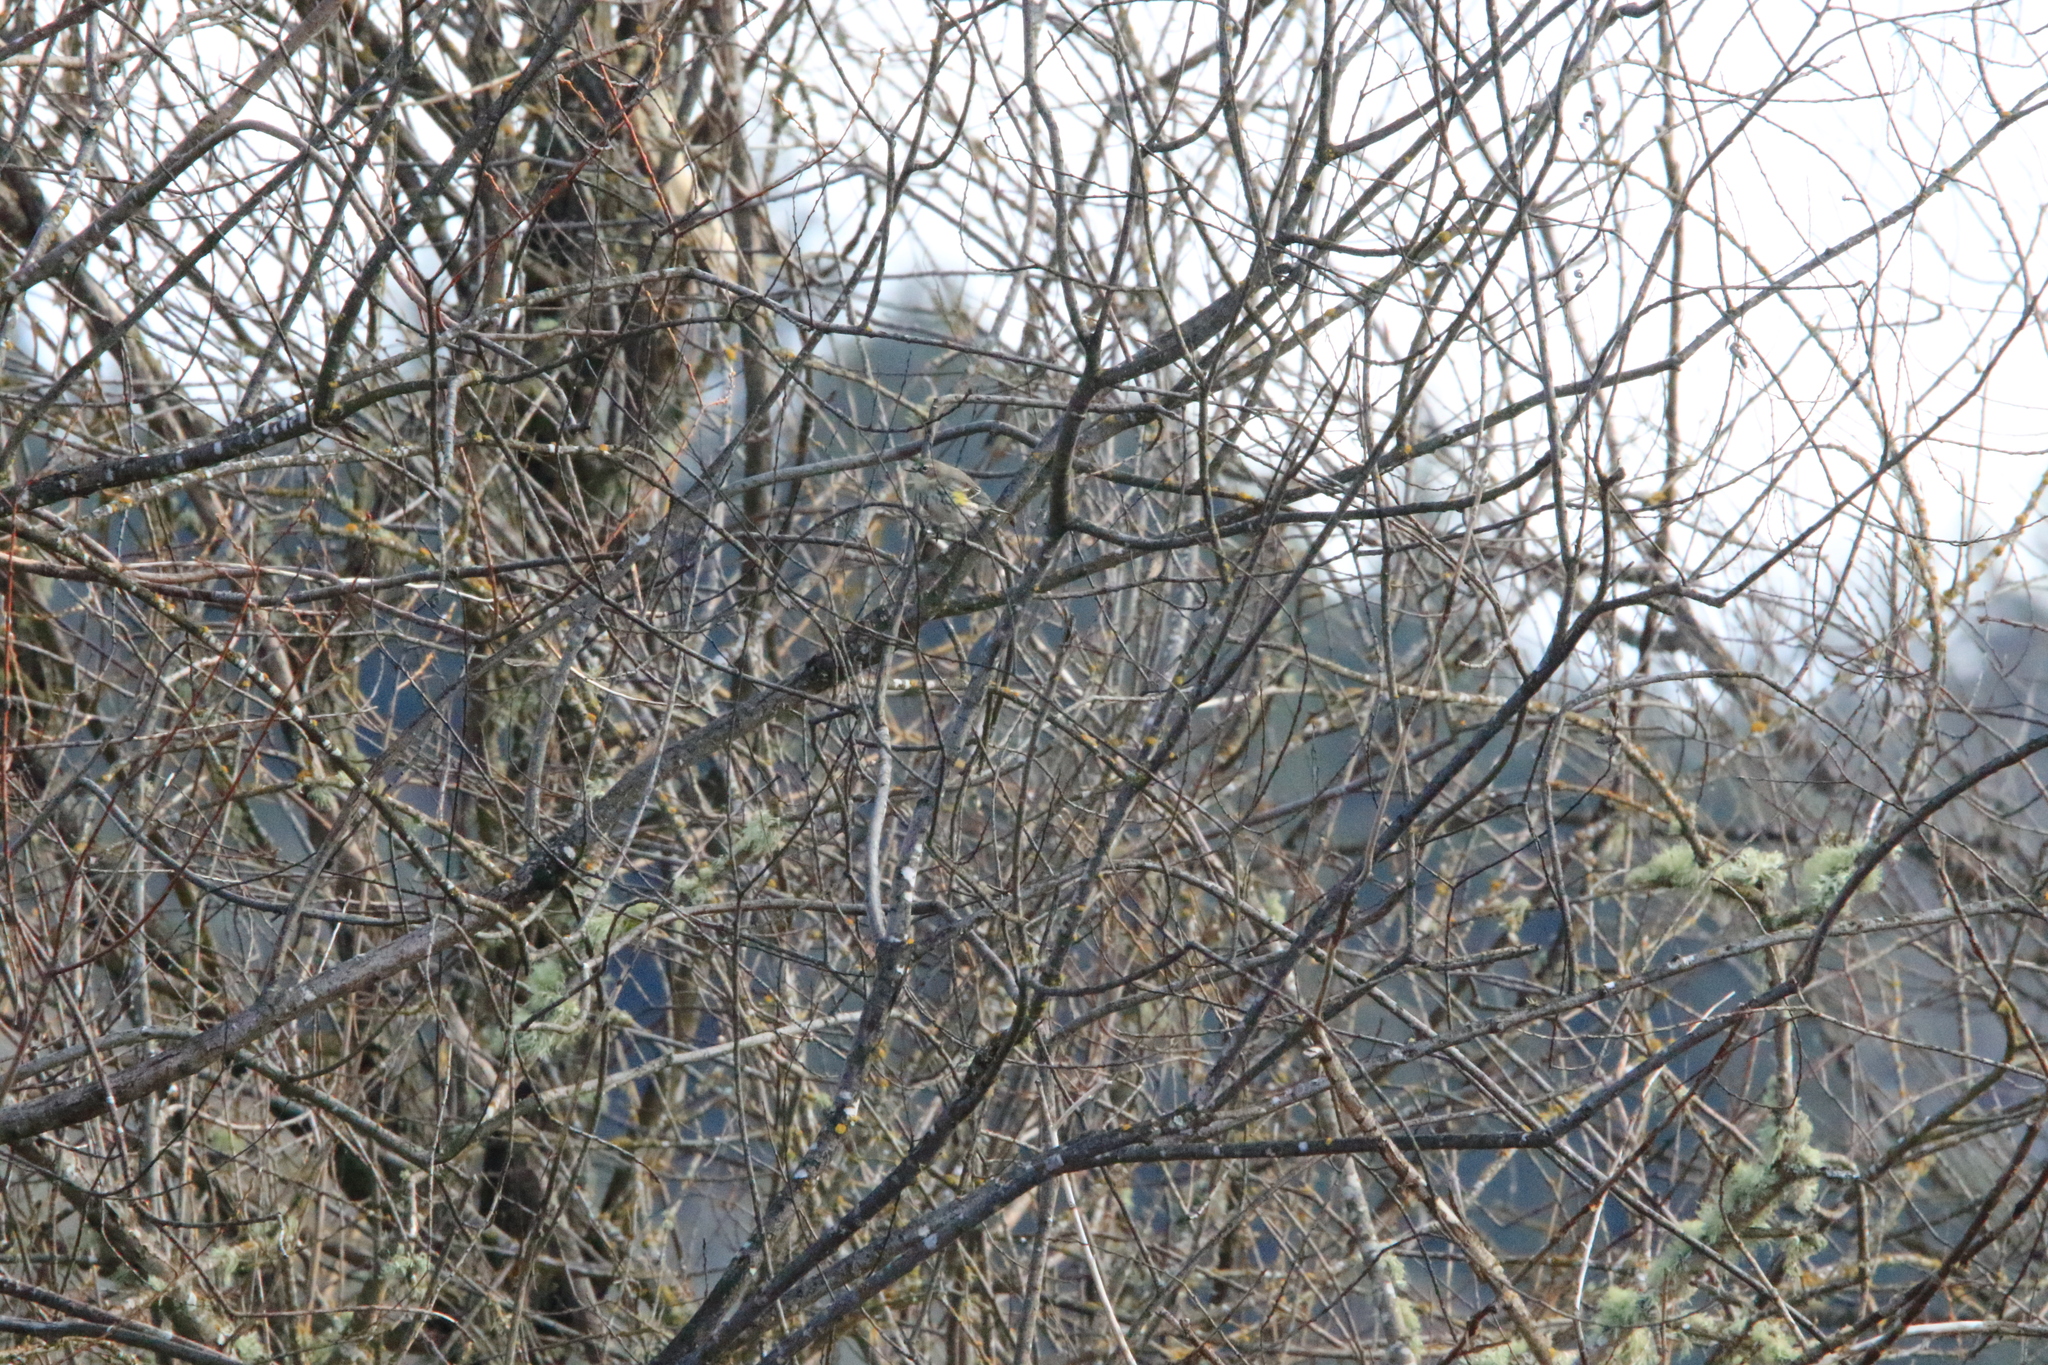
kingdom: Animalia
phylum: Chordata
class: Aves
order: Passeriformes
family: Parulidae
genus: Setophaga
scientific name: Setophaga coronata
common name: Myrtle warbler
